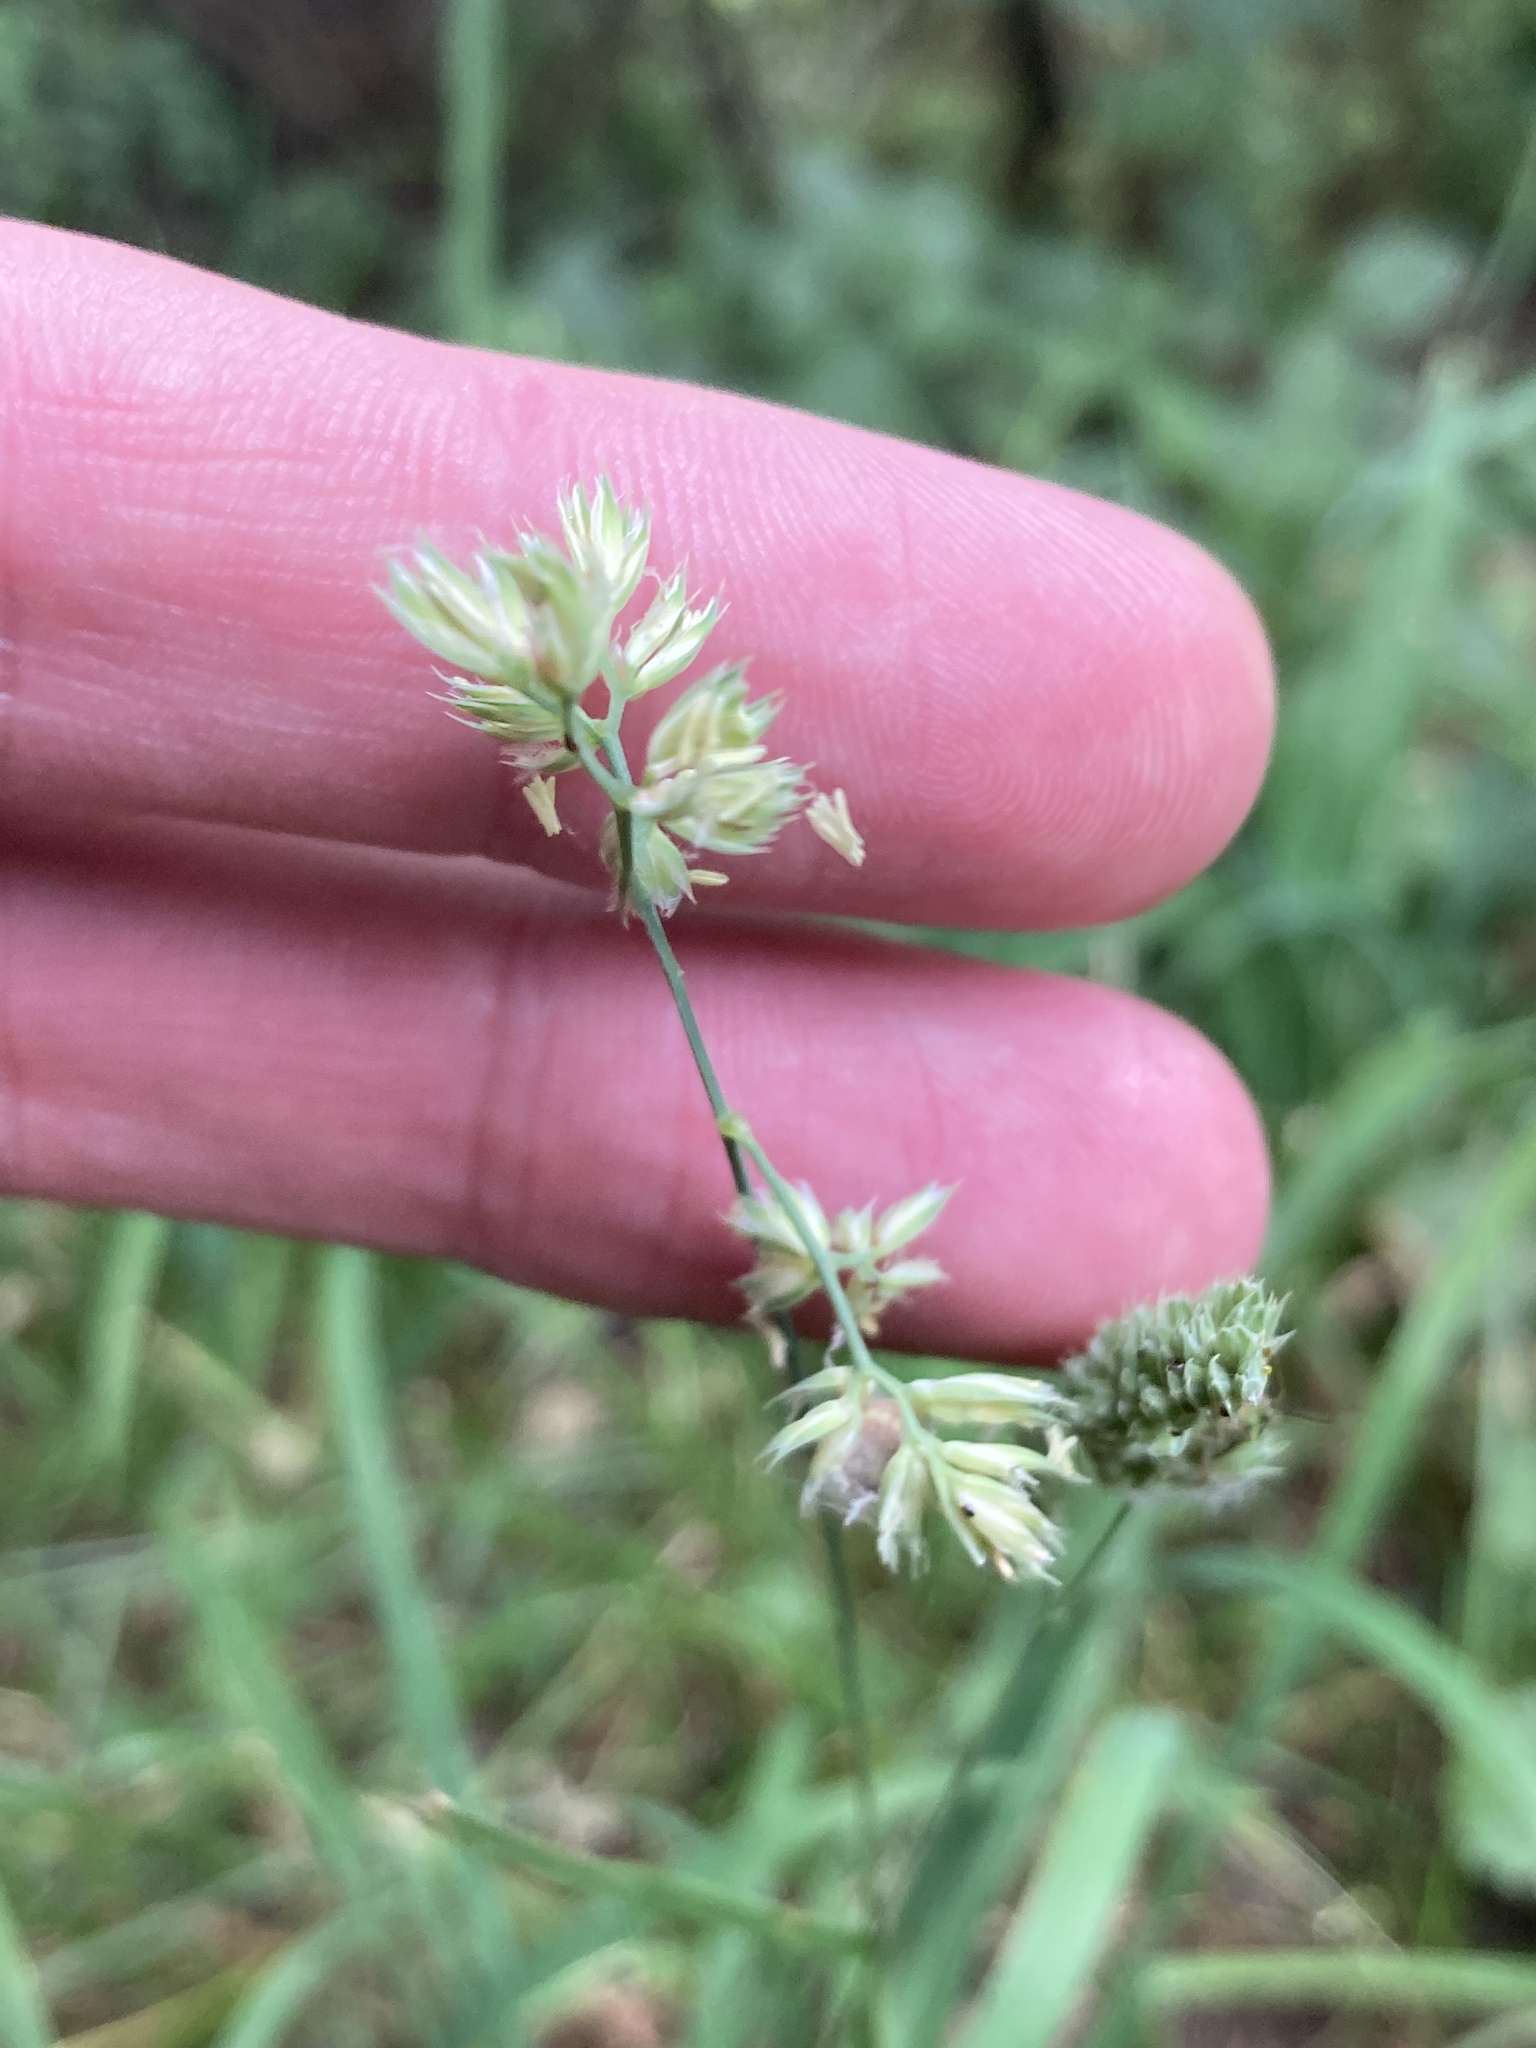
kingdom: Plantae
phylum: Tracheophyta
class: Liliopsida
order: Poales
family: Poaceae
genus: Dactylis
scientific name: Dactylis glomerata
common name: Orchardgrass
